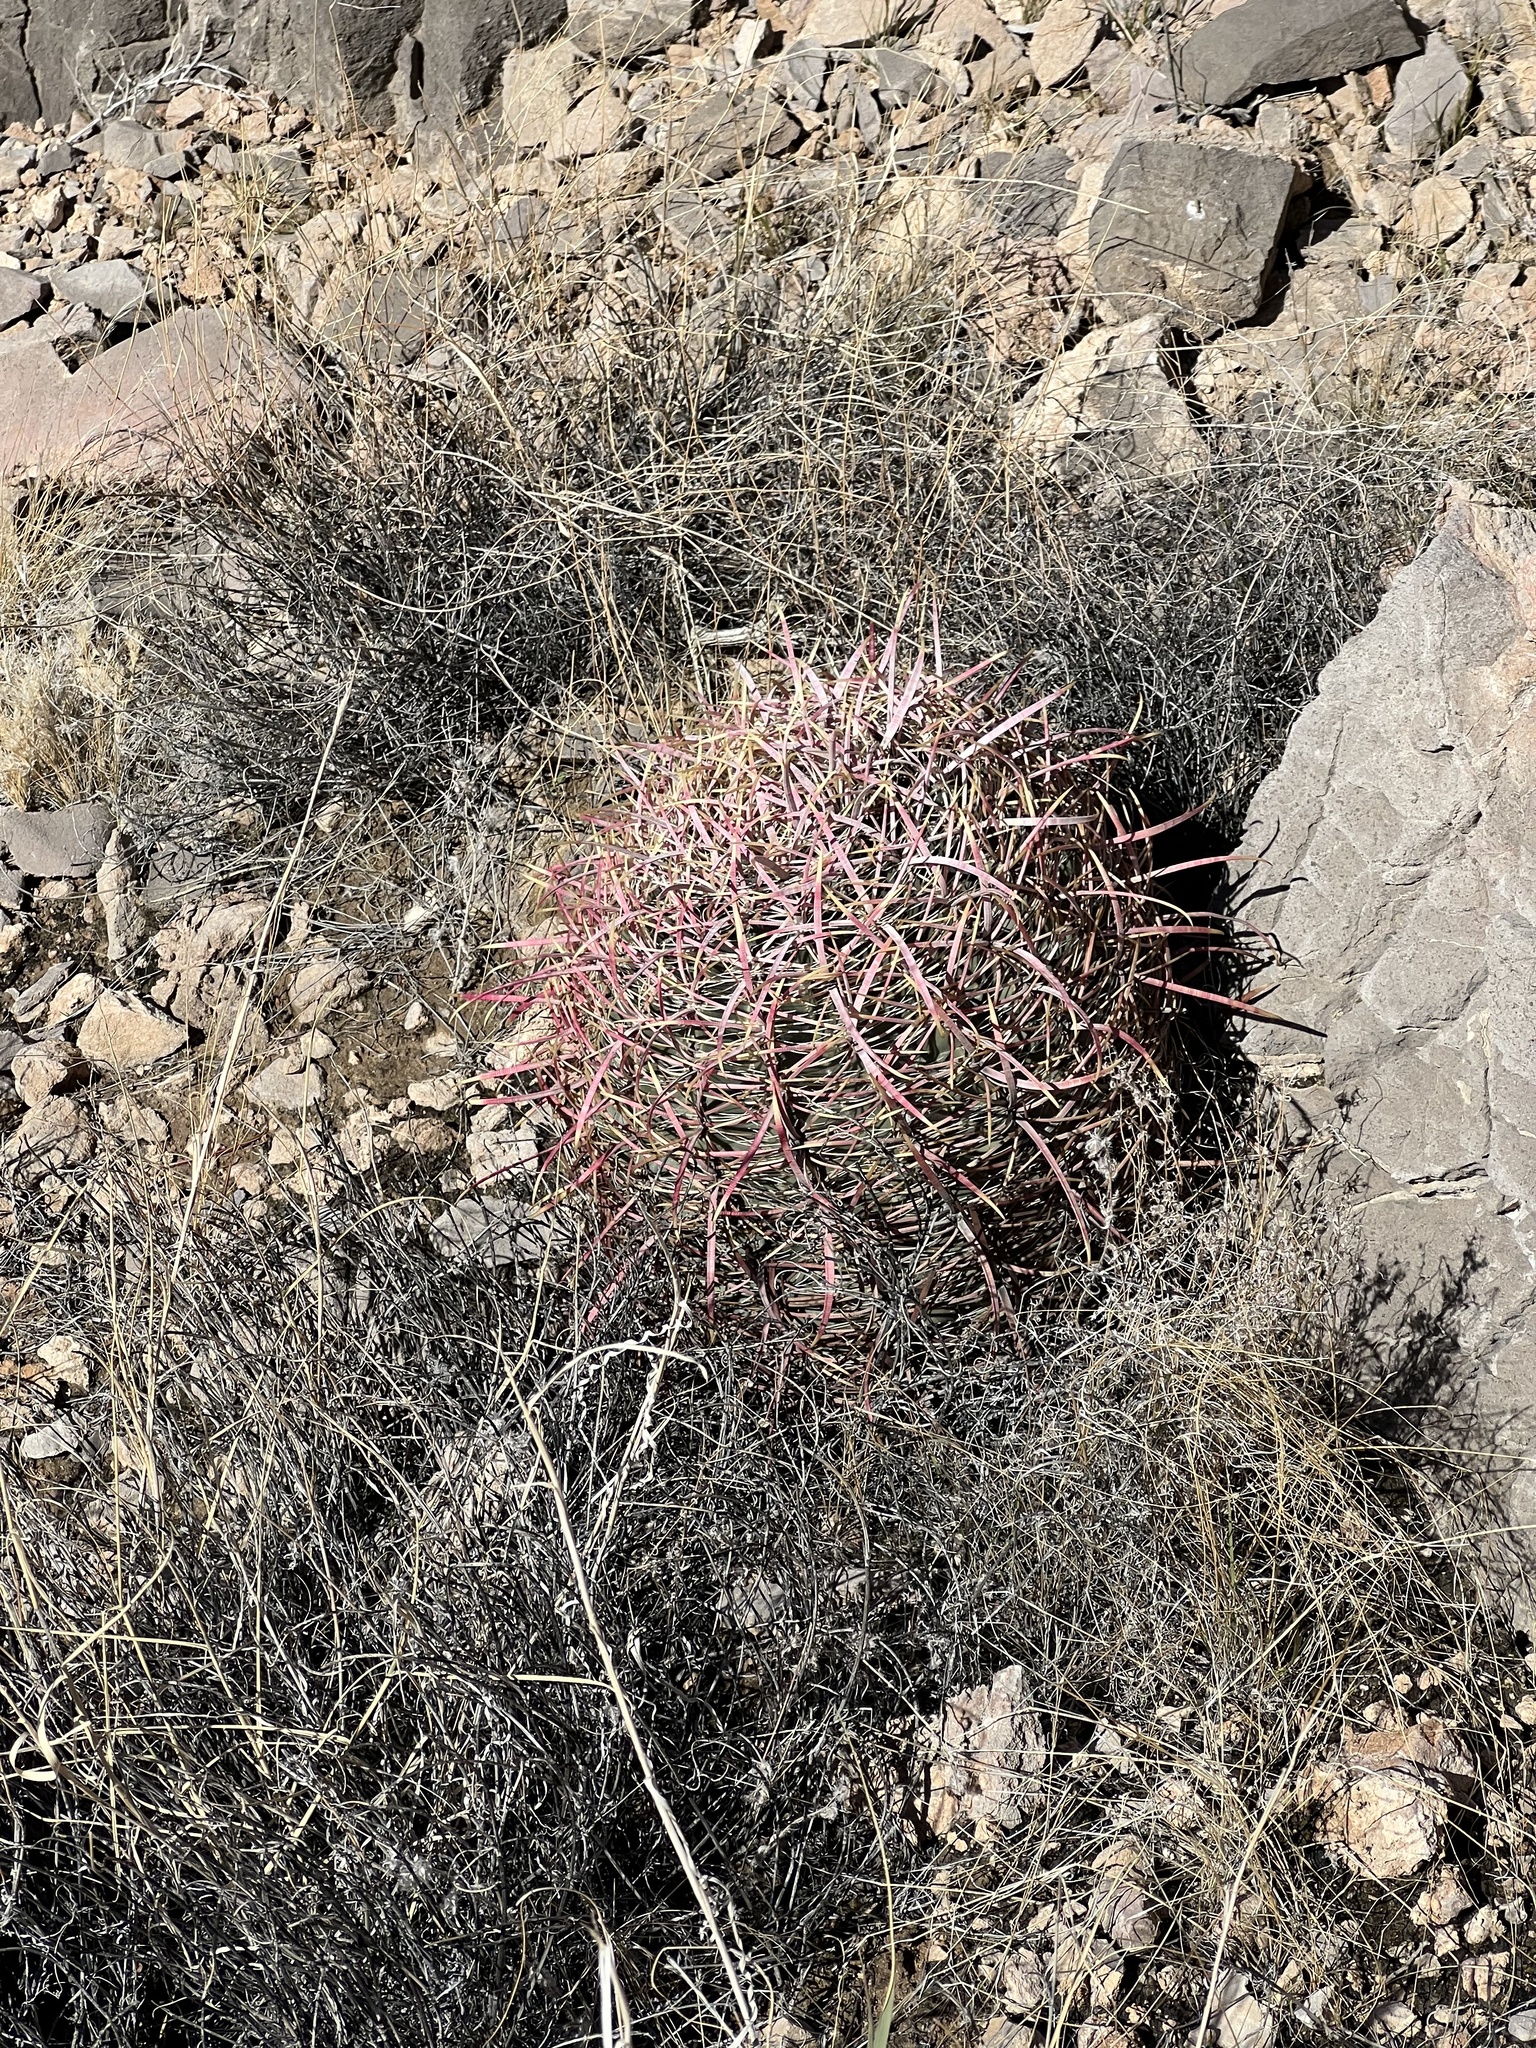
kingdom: Plantae
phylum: Tracheophyta
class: Magnoliopsida
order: Caryophyllales
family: Cactaceae
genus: Ferocactus
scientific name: Ferocactus cylindraceus
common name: California barrel cactus
